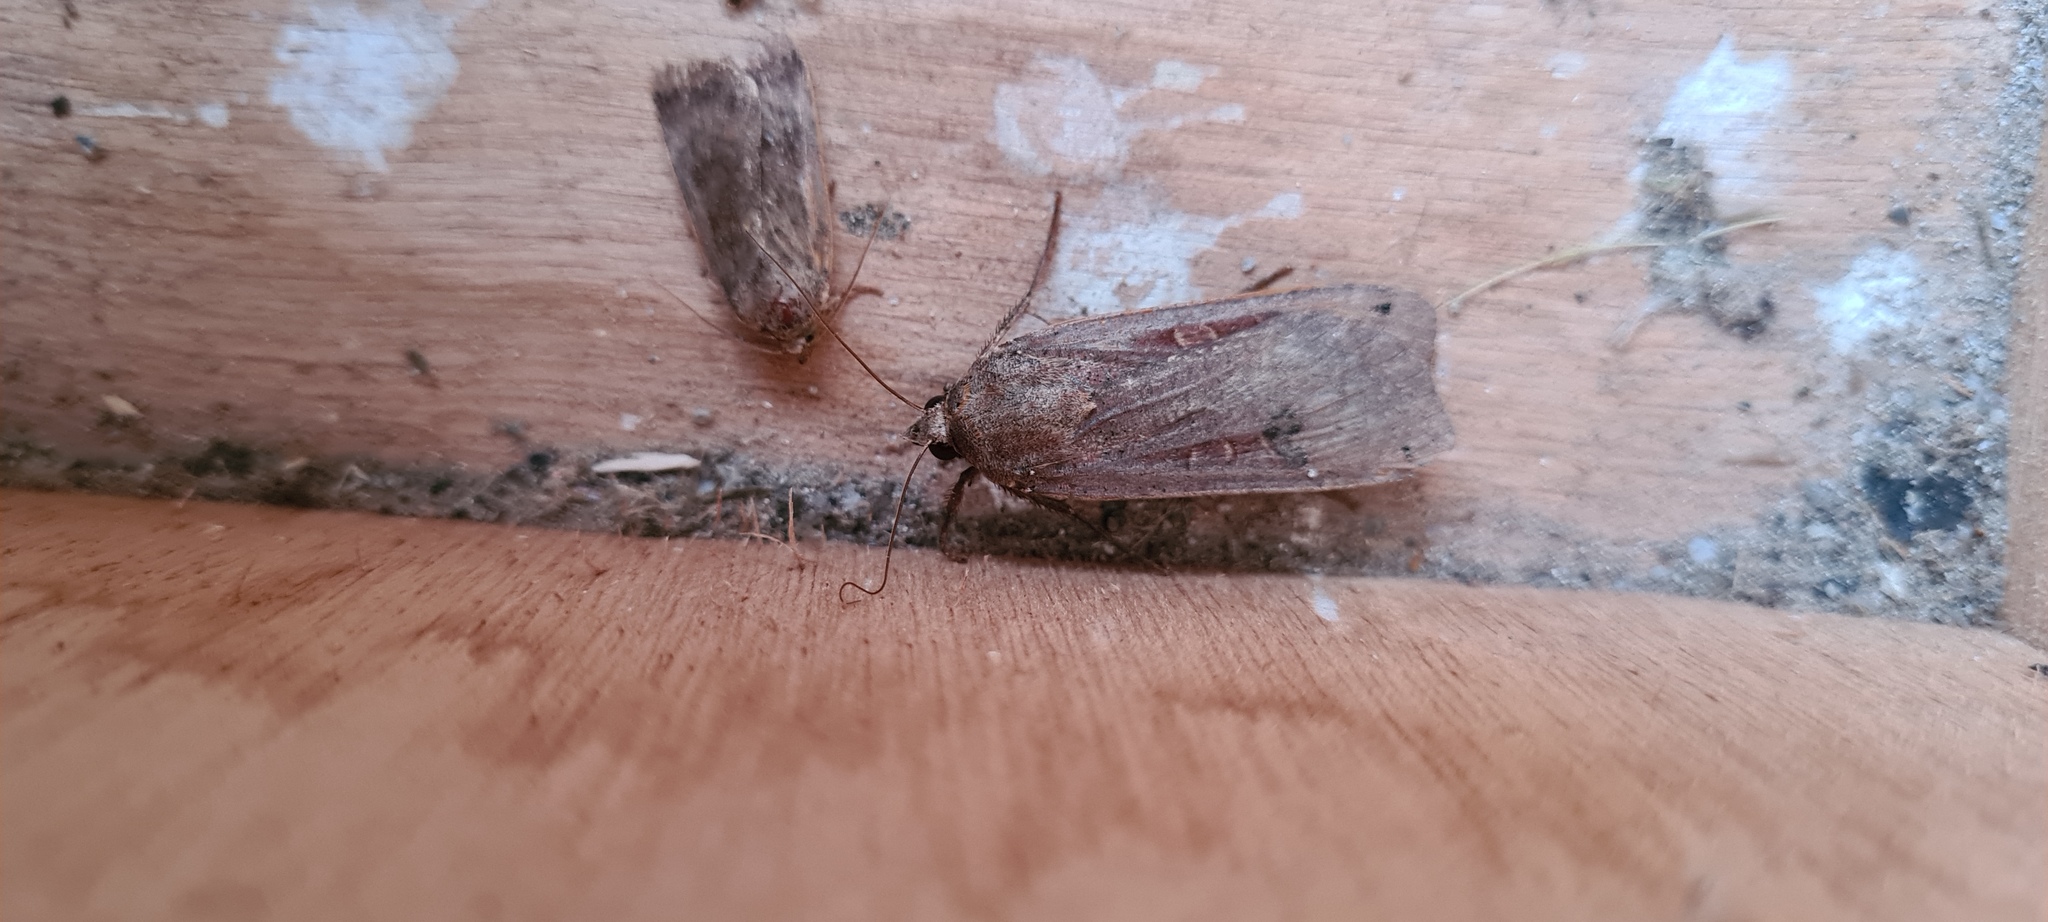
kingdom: Animalia
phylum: Arthropoda
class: Insecta
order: Lepidoptera
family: Noctuidae
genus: Noctua
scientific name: Noctua pronuba
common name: Large yellow underwing
